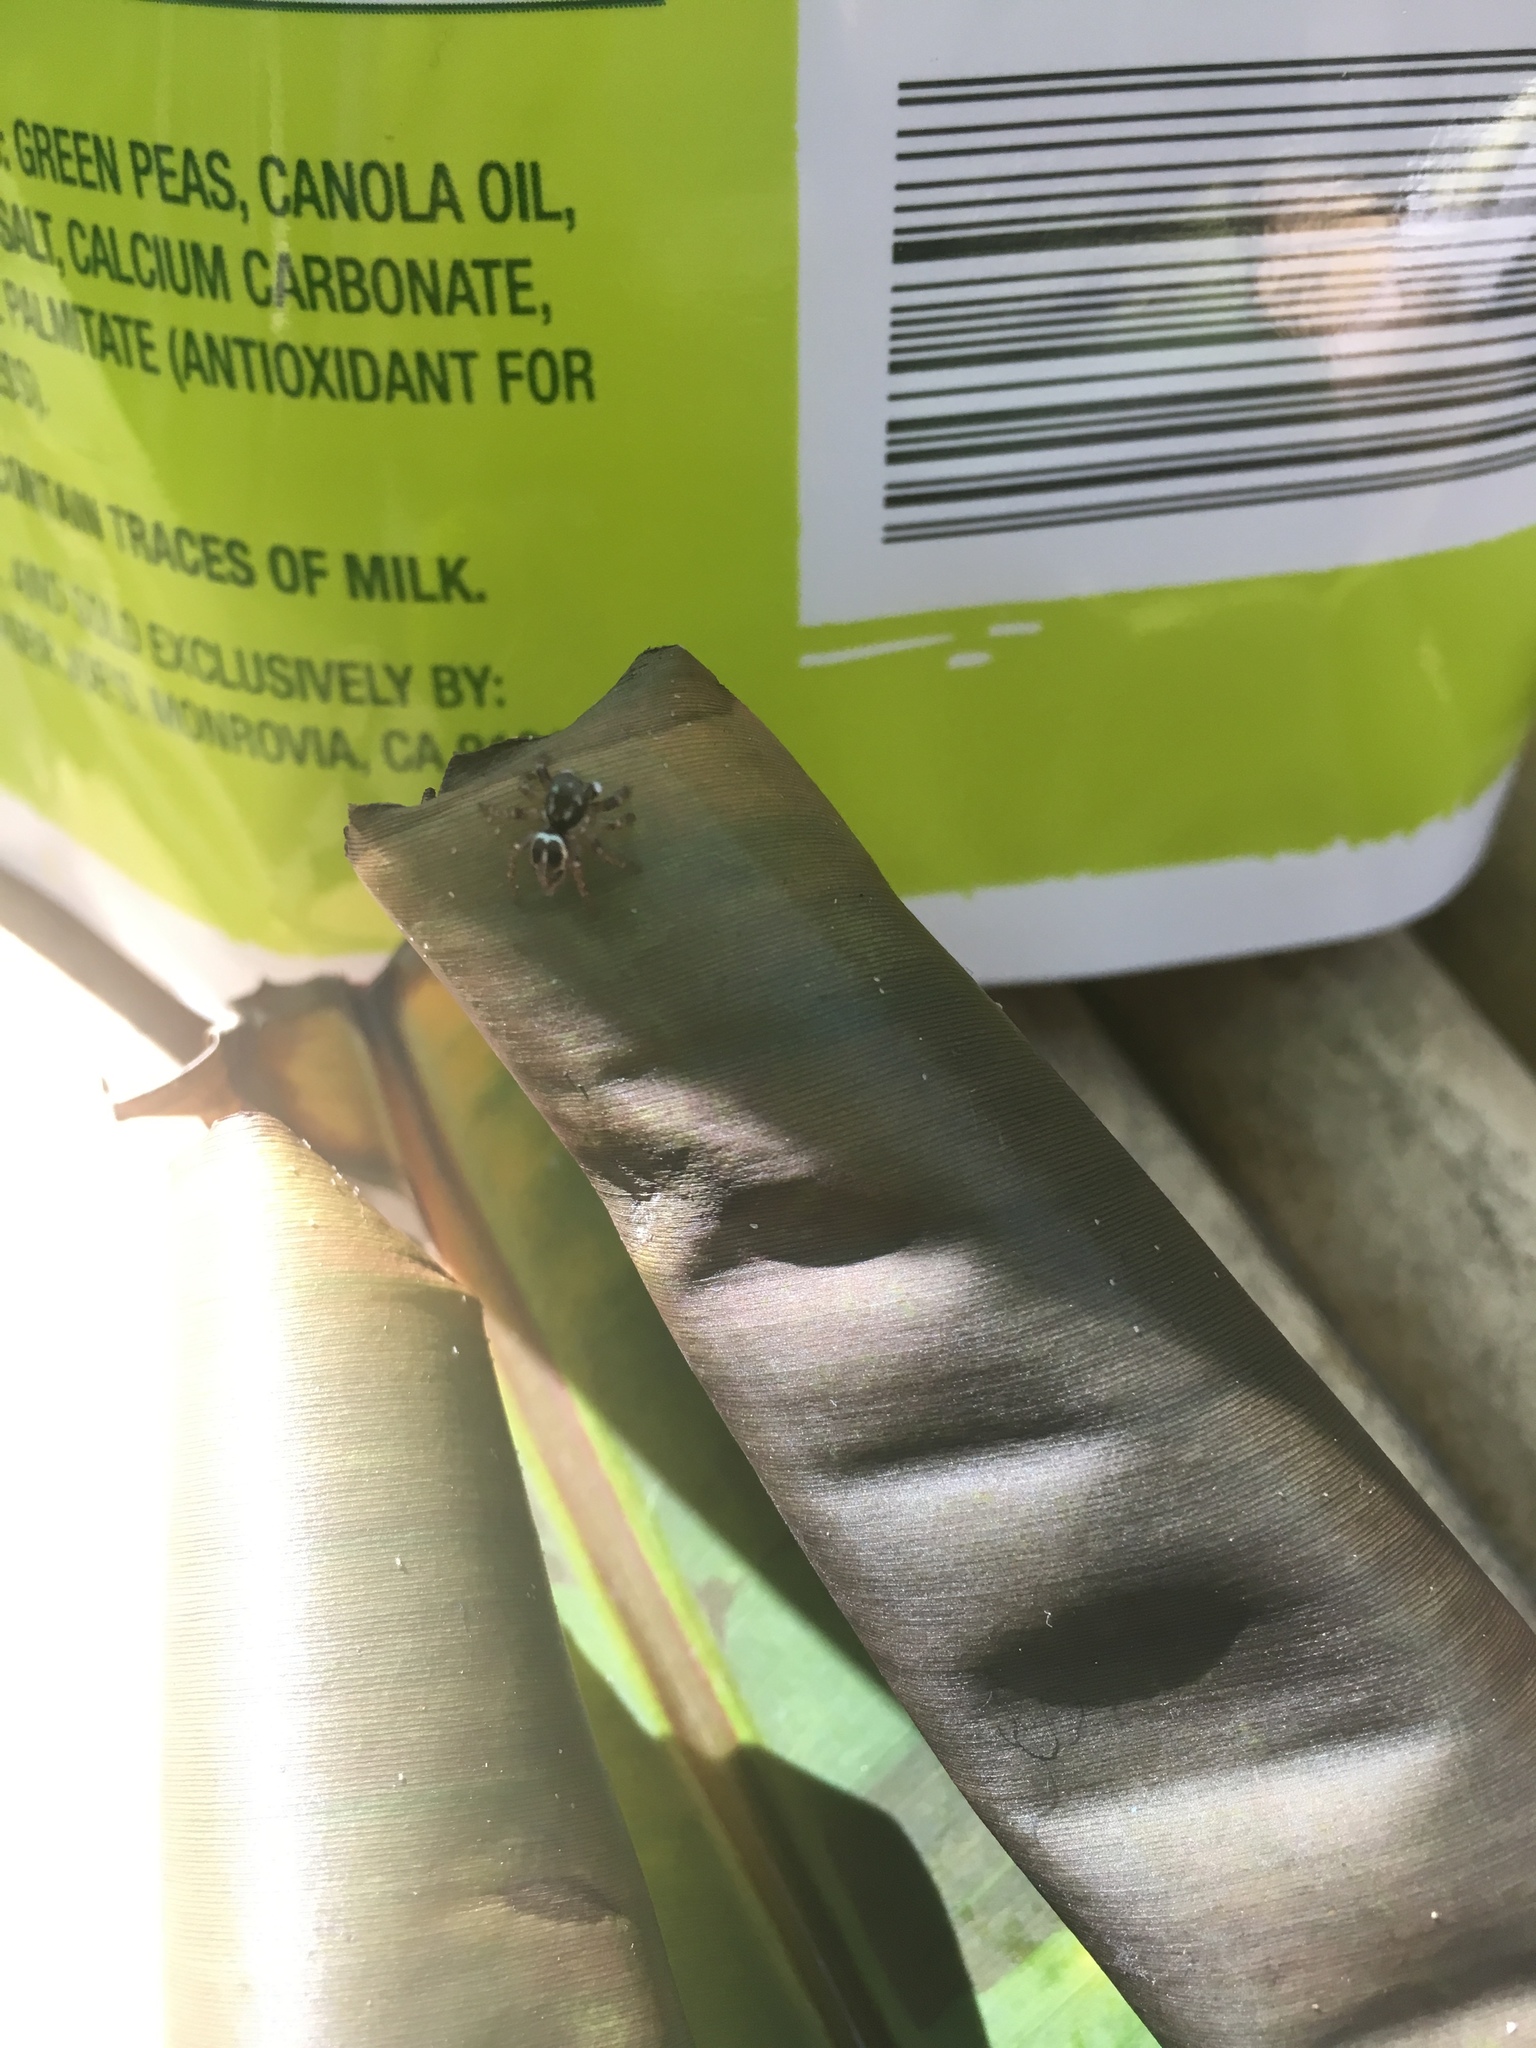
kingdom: Animalia
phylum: Arthropoda
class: Arachnida
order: Araneae
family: Salticidae
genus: Anasaitis
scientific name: Anasaitis canosa
